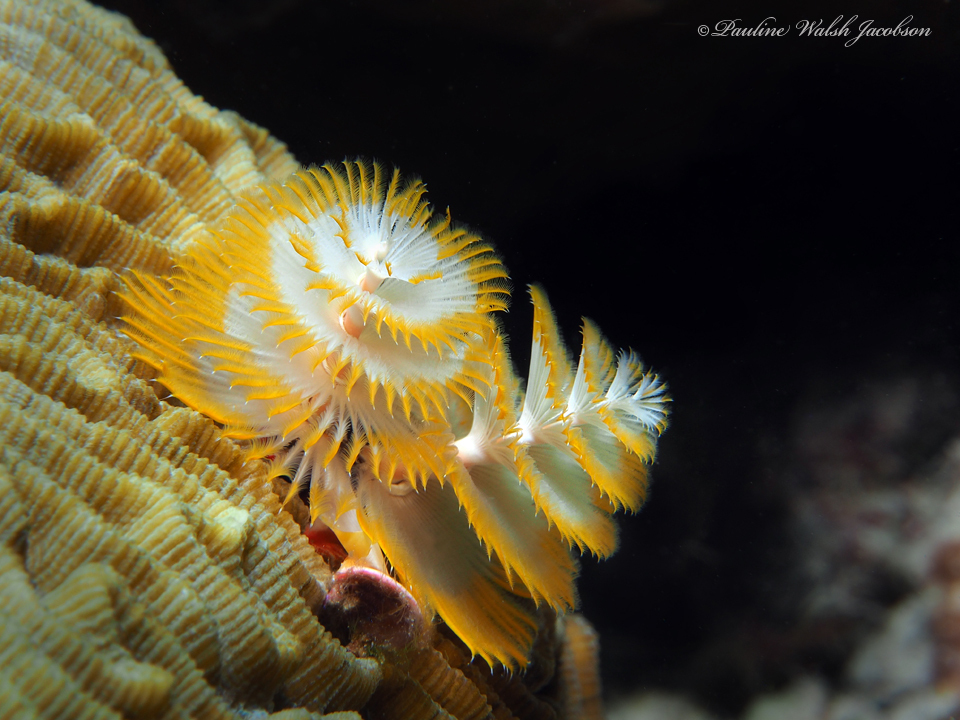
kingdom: Animalia
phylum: Annelida
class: Polychaeta
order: Sabellida
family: Serpulidae
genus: Spirobranchus
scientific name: Spirobranchus giganteus
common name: Christmas tree worm
